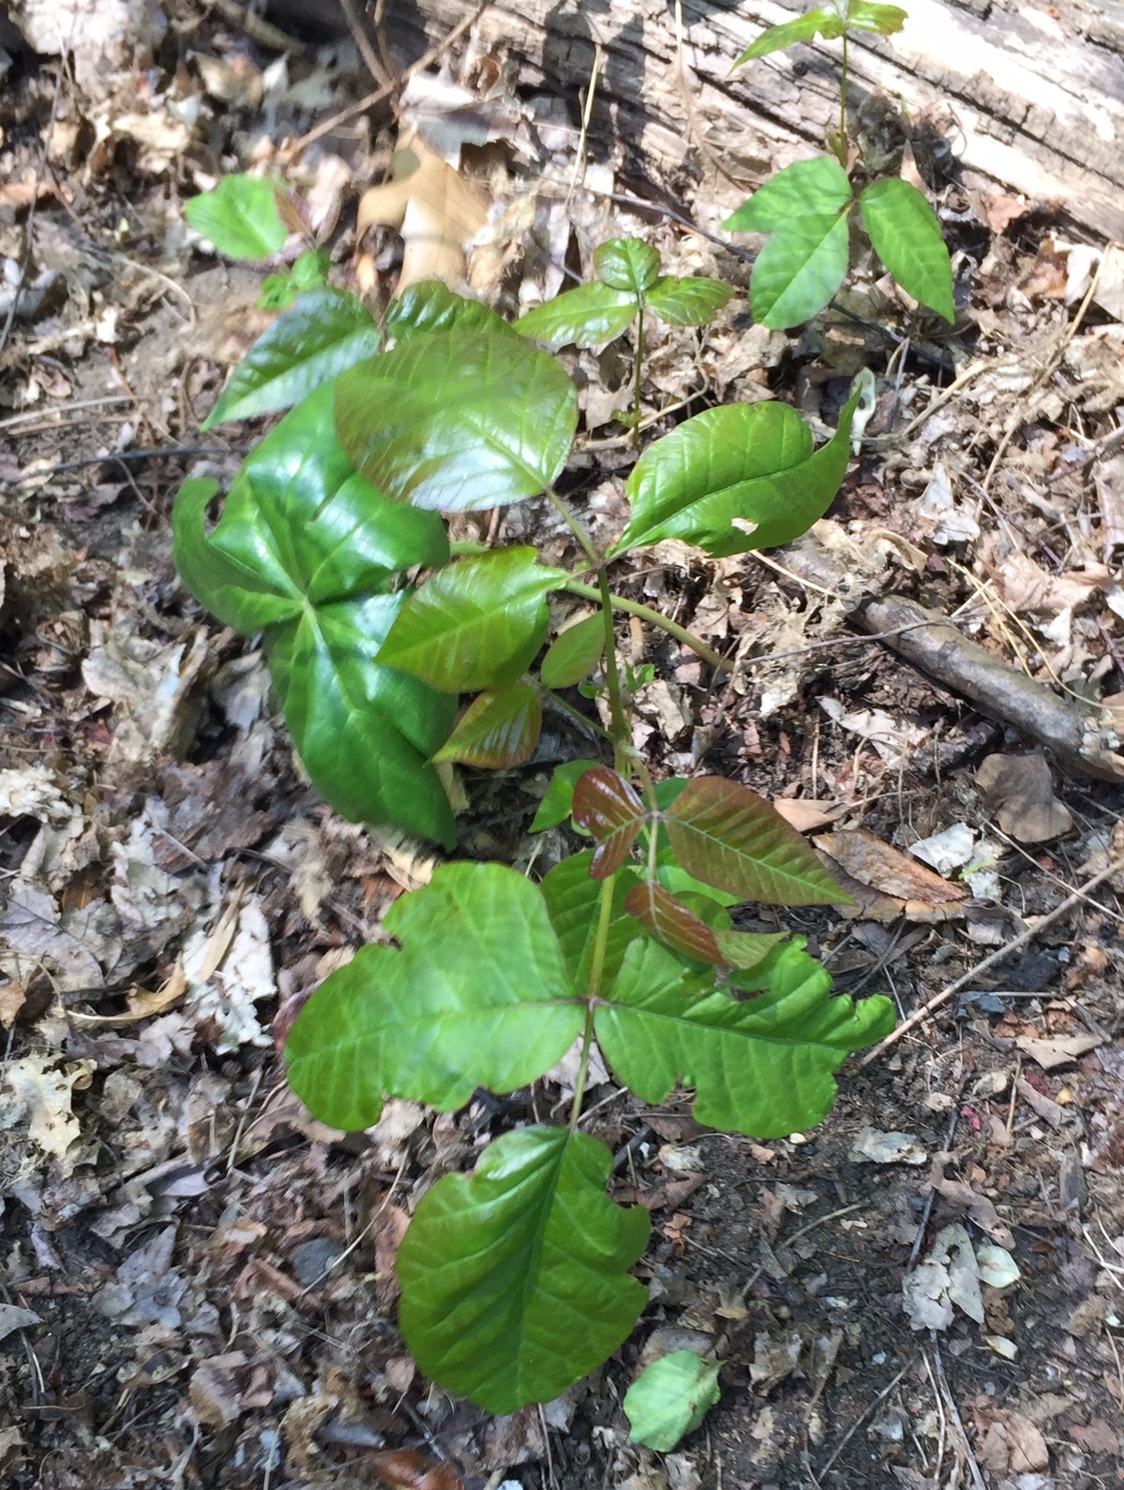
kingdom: Plantae
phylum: Tracheophyta
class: Magnoliopsida
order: Sapindales
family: Anacardiaceae
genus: Toxicodendron
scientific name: Toxicodendron radicans
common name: Poison ivy
